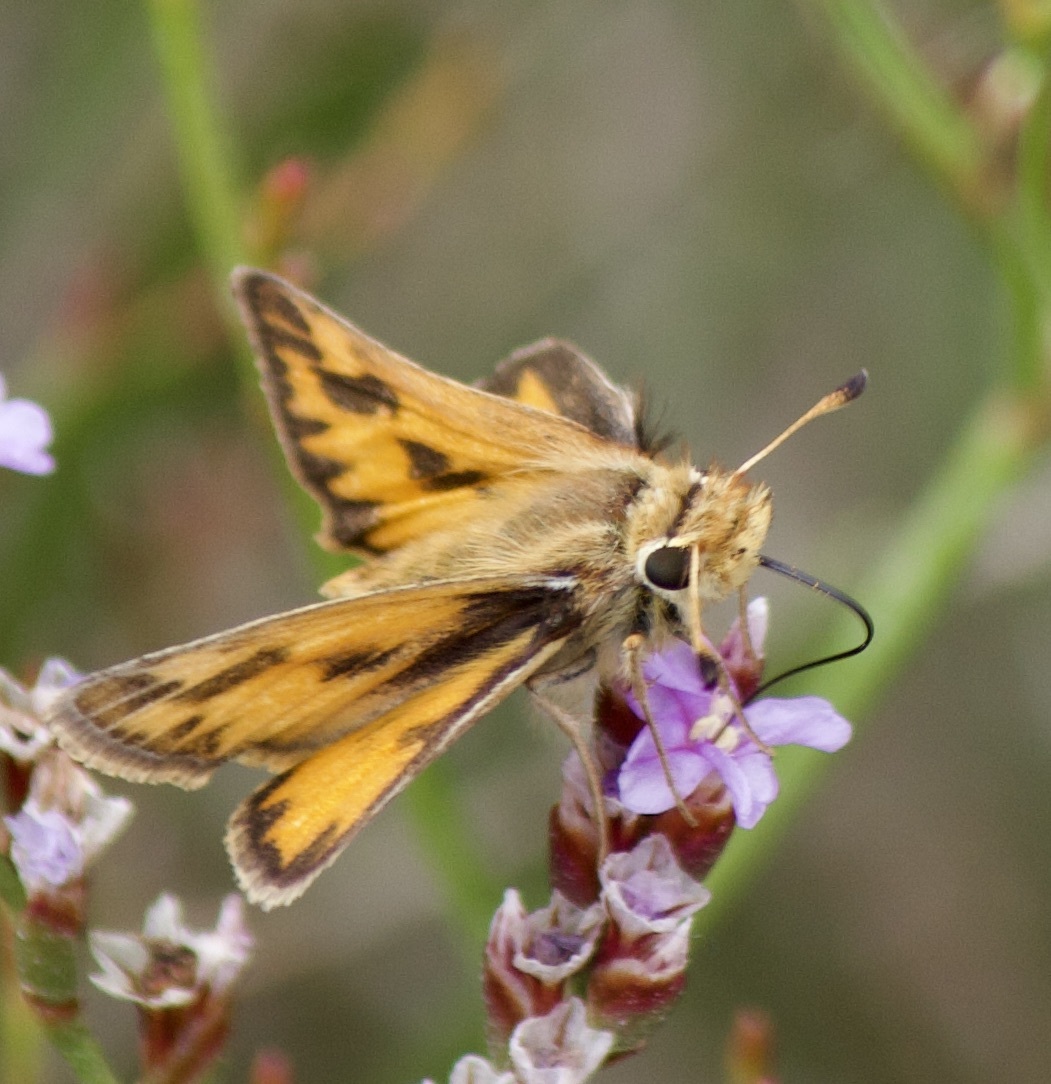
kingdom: Animalia
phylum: Arthropoda
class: Insecta
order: Lepidoptera
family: Hesperiidae
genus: Hylephila
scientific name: Hylephila fasciolata
